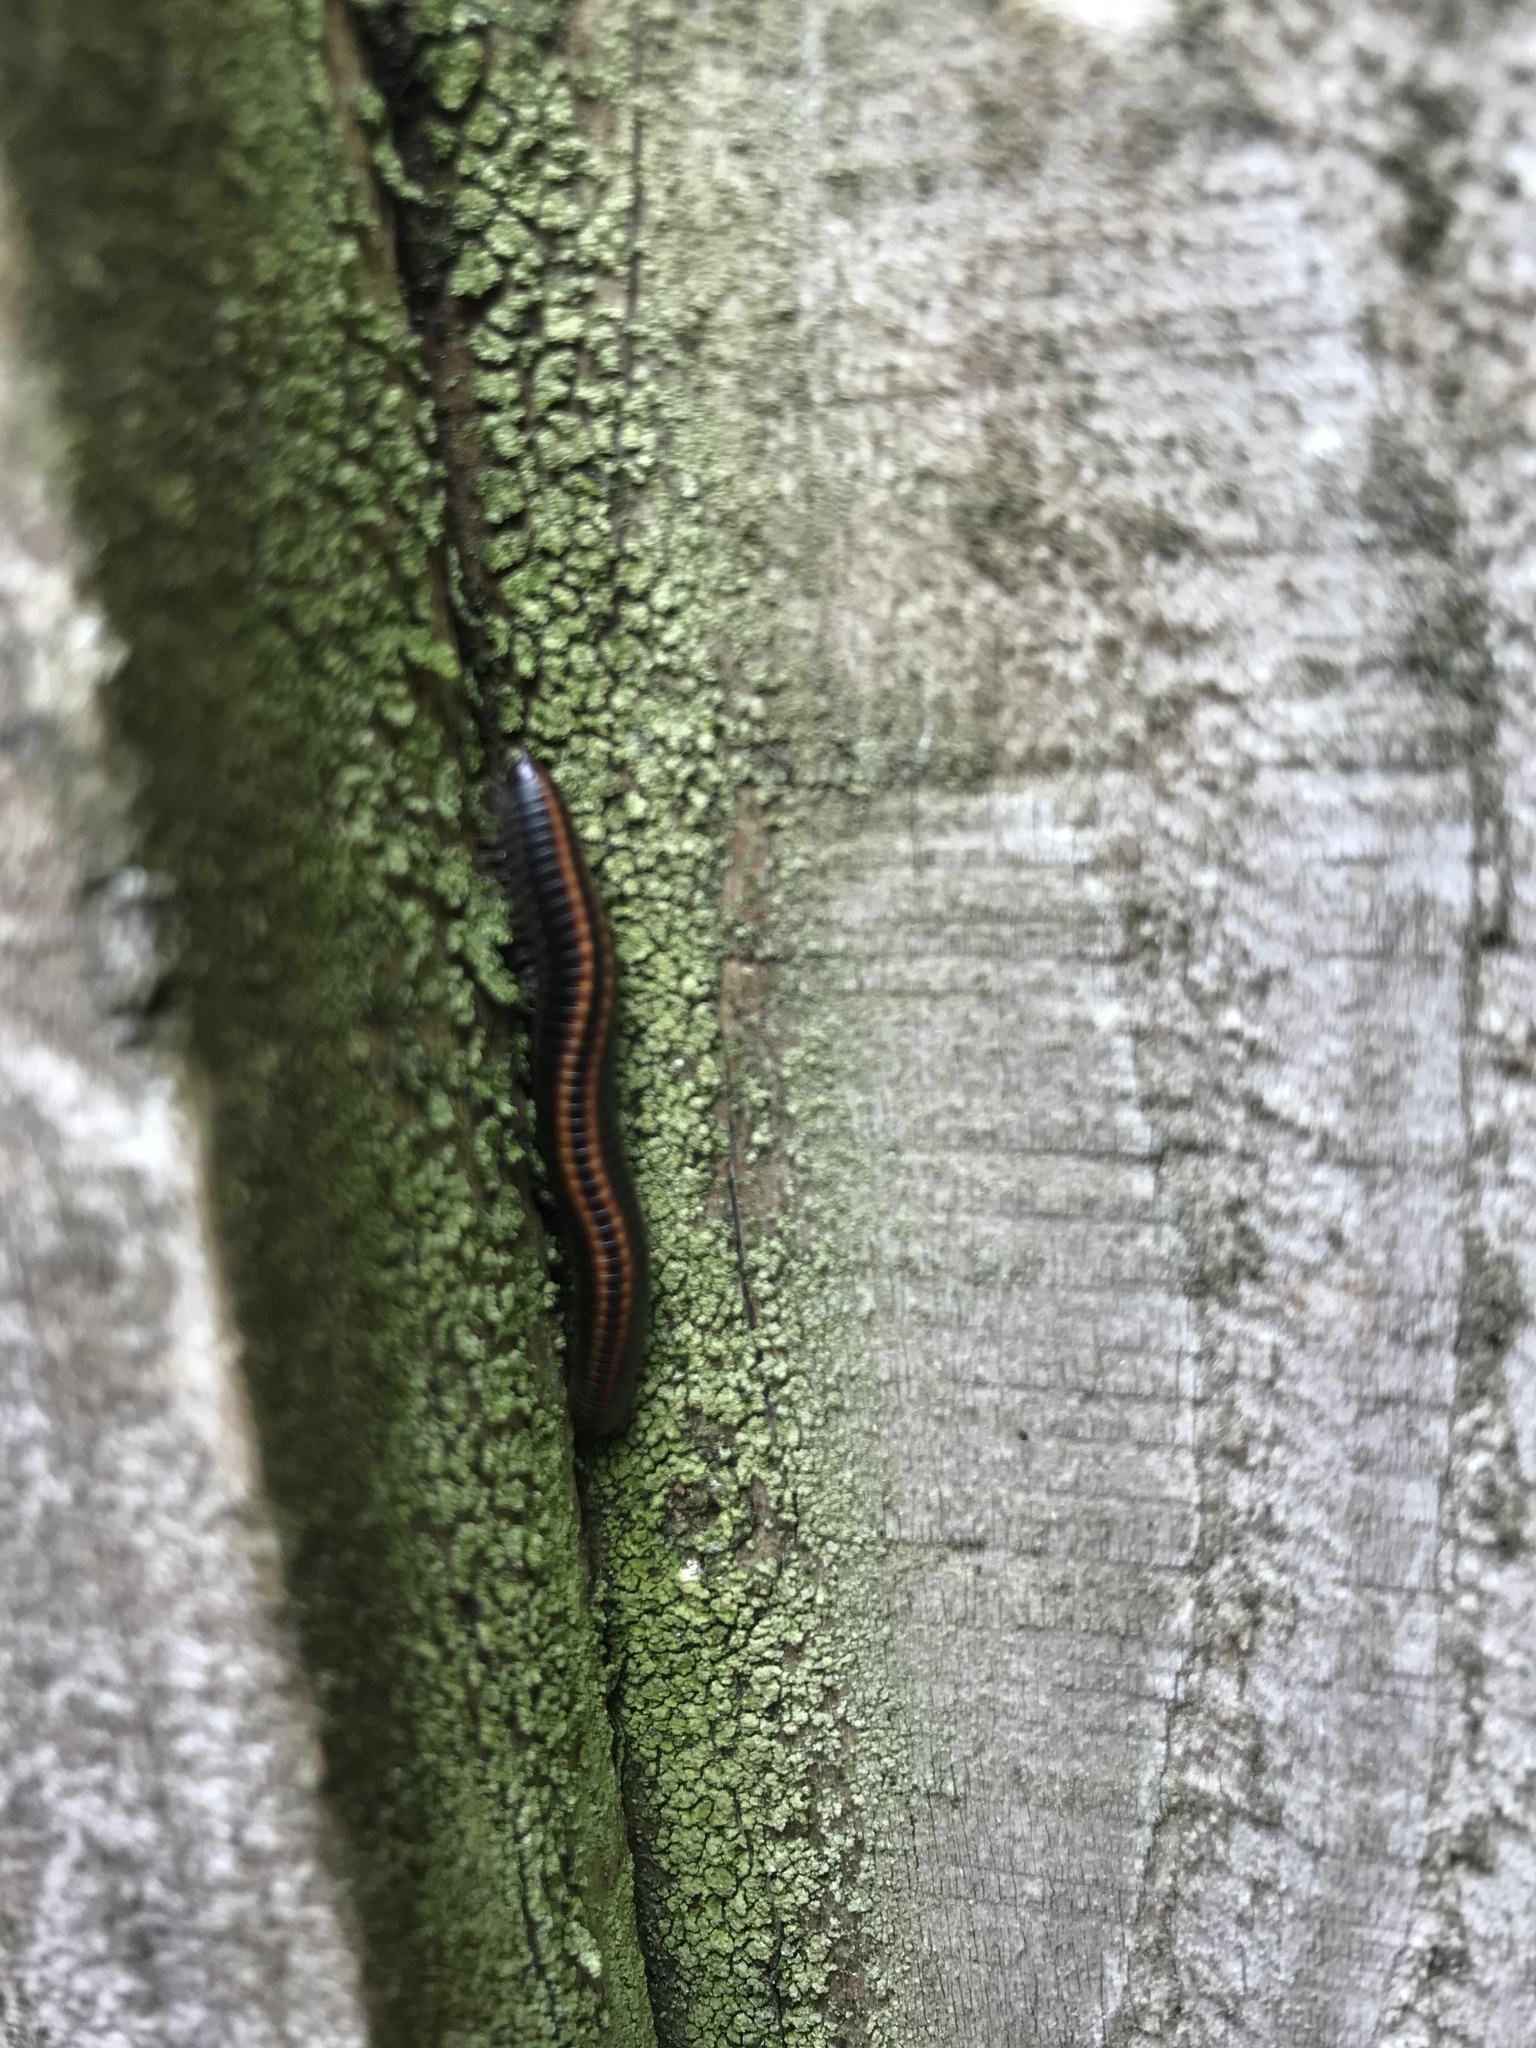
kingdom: Animalia
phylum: Arthropoda
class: Diplopoda
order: Julida
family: Julidae
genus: Ommatoiulus
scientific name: Ommatoiulus sabulosus
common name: Striped millipede
